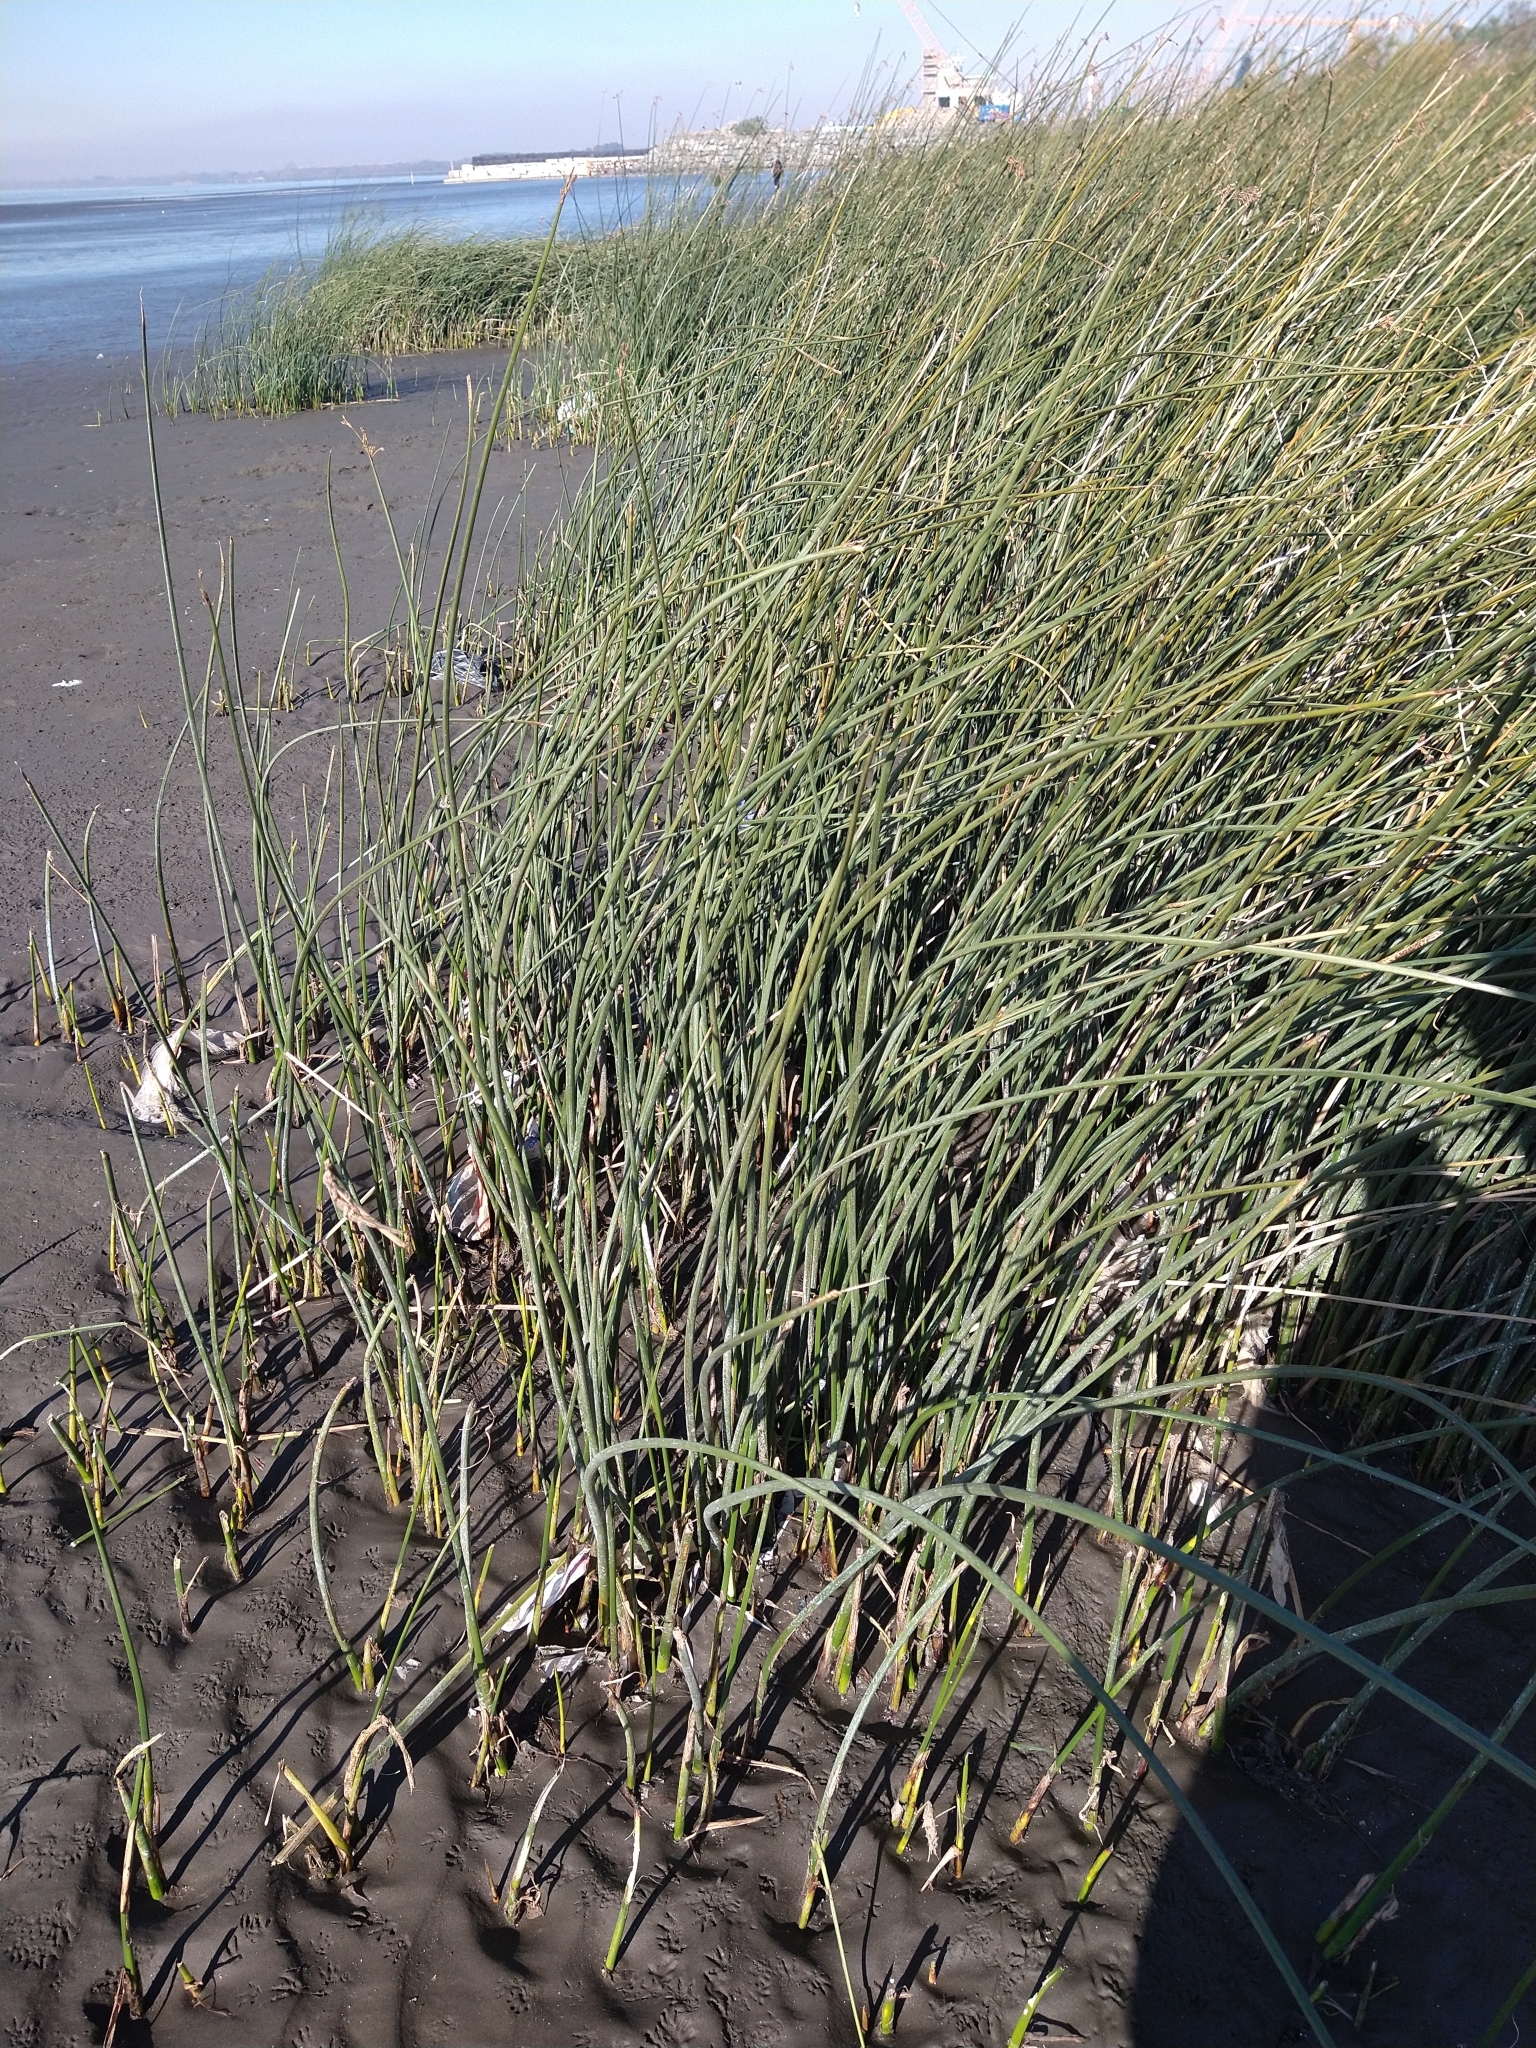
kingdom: Plantae
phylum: Tracheophyta
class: Liliopsida
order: Poales
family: Cyperaceae
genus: Schoenoplectus
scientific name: Schoenoplectus californicus
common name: California bulrush
